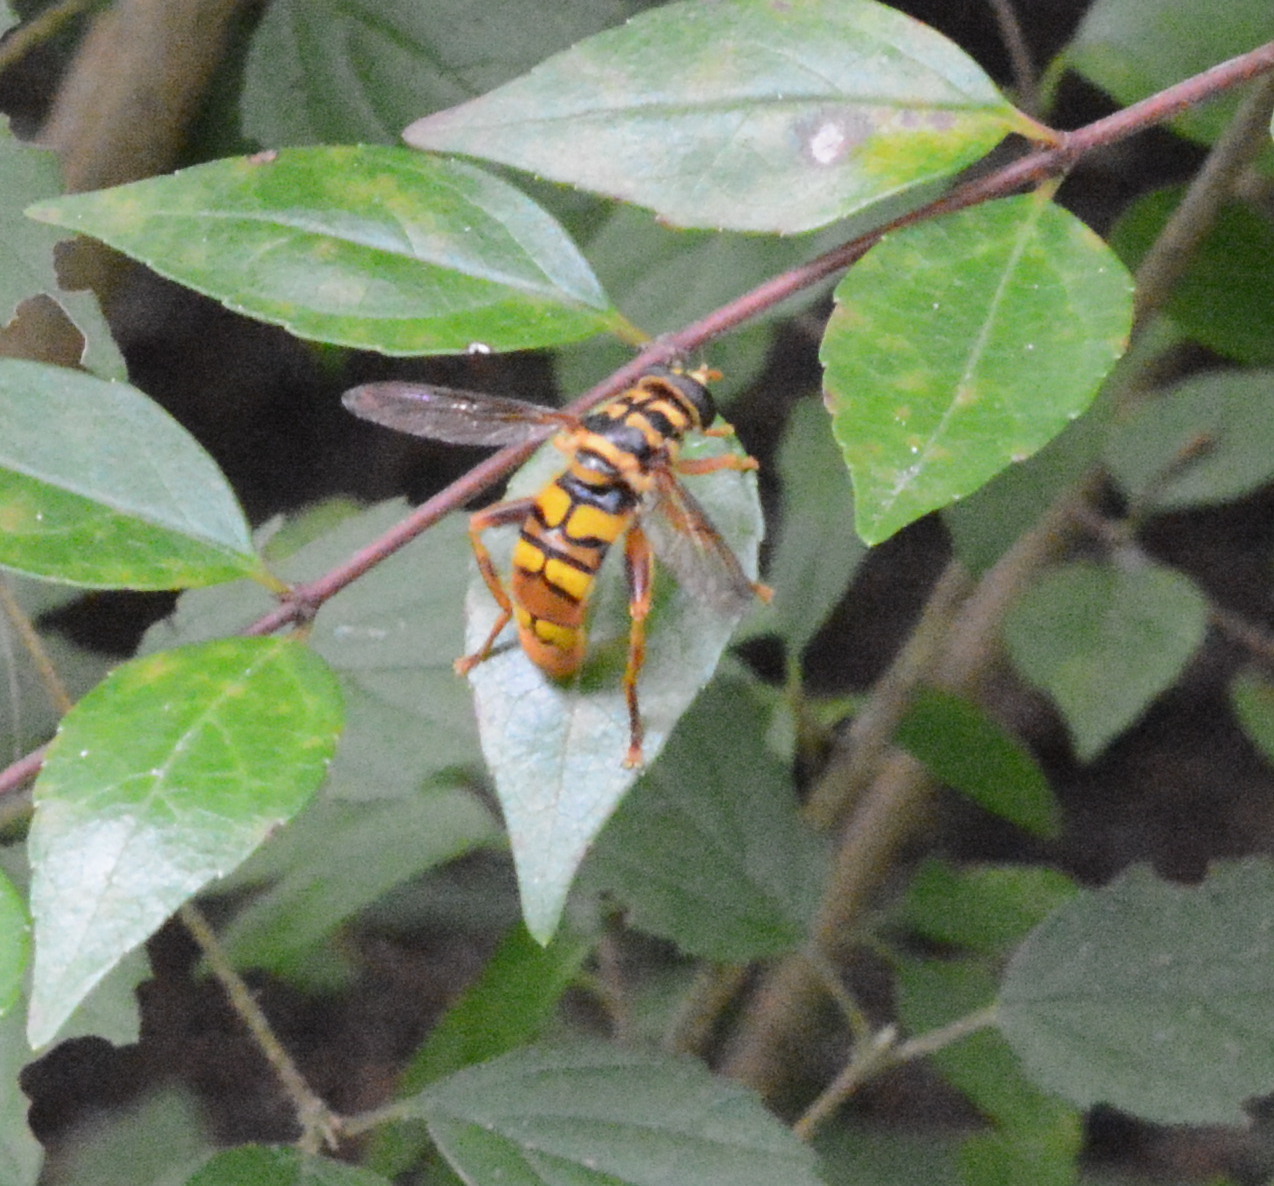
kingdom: Animalia
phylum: Arthropoda
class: Insecta
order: Diptera
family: Syrphidae
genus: Milesia
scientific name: Milesia virginiensis
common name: Virginia giant
